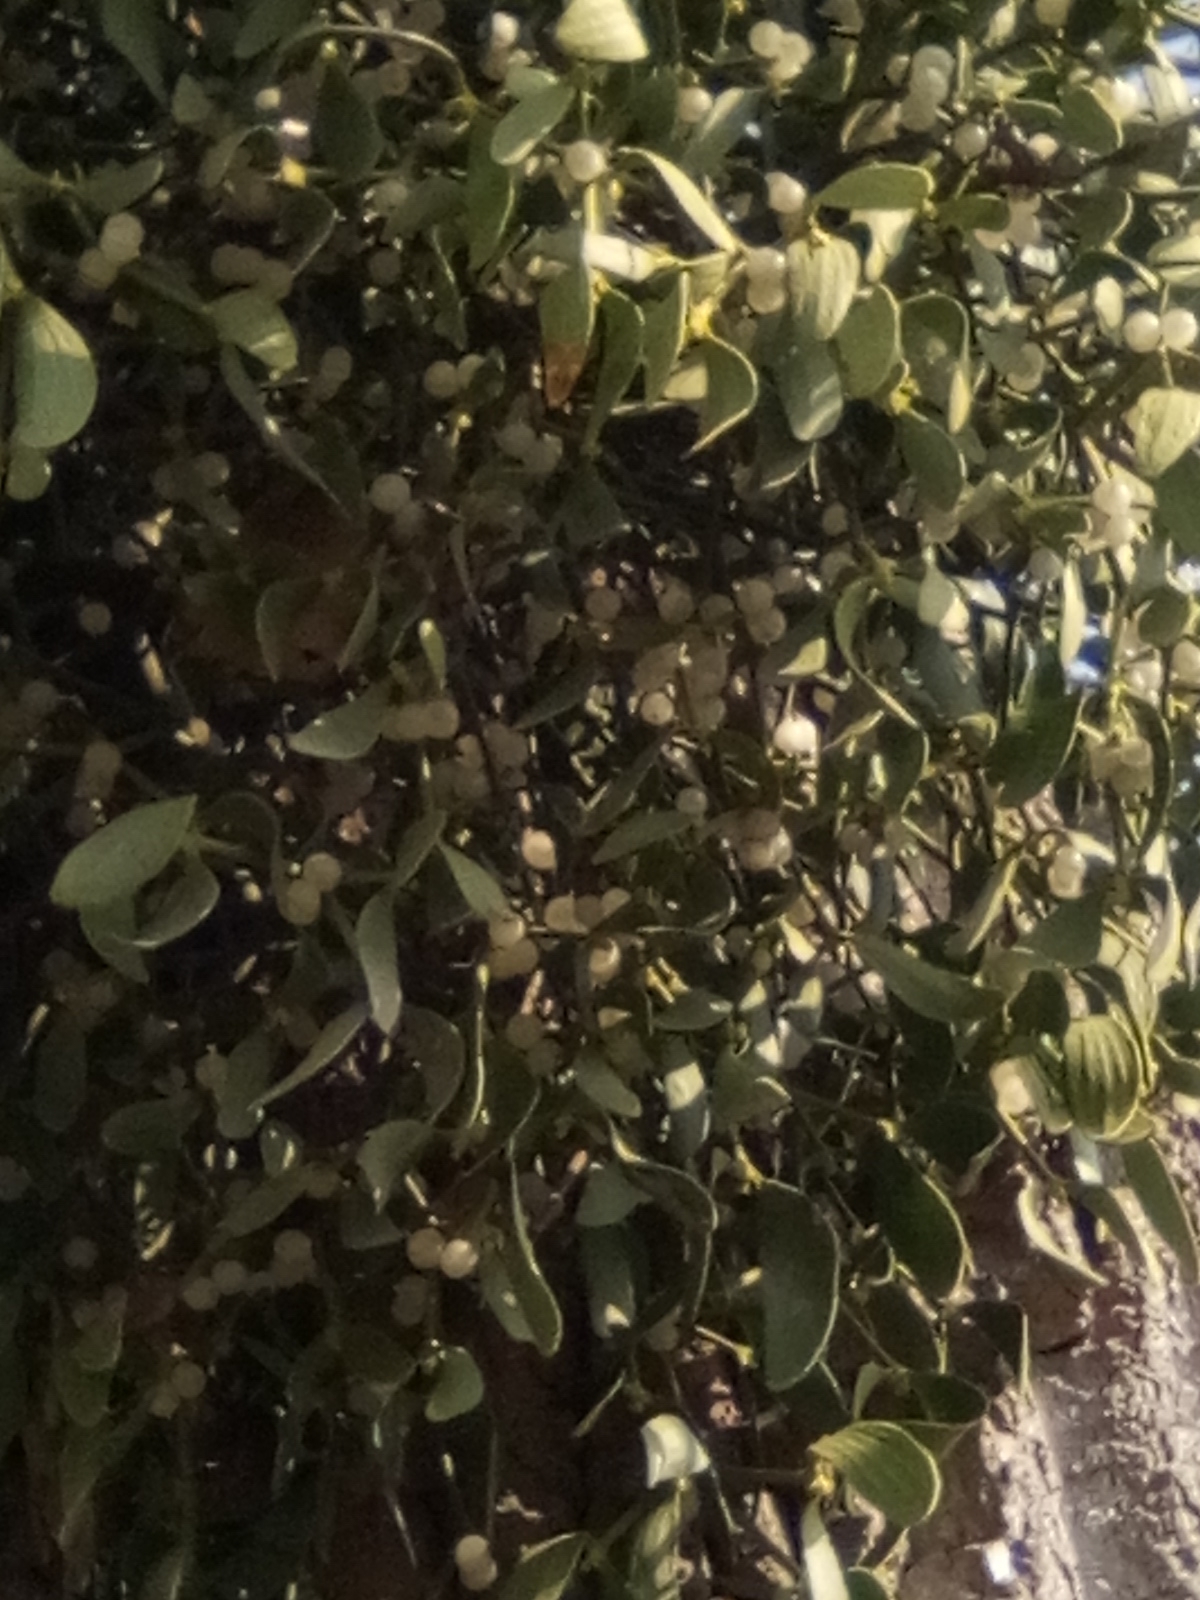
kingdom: Plantae
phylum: Tracheophyta
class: Magnoliopsida
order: Santalales
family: Viscaceae
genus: Viscum
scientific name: Viscum album
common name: Mistletoe
